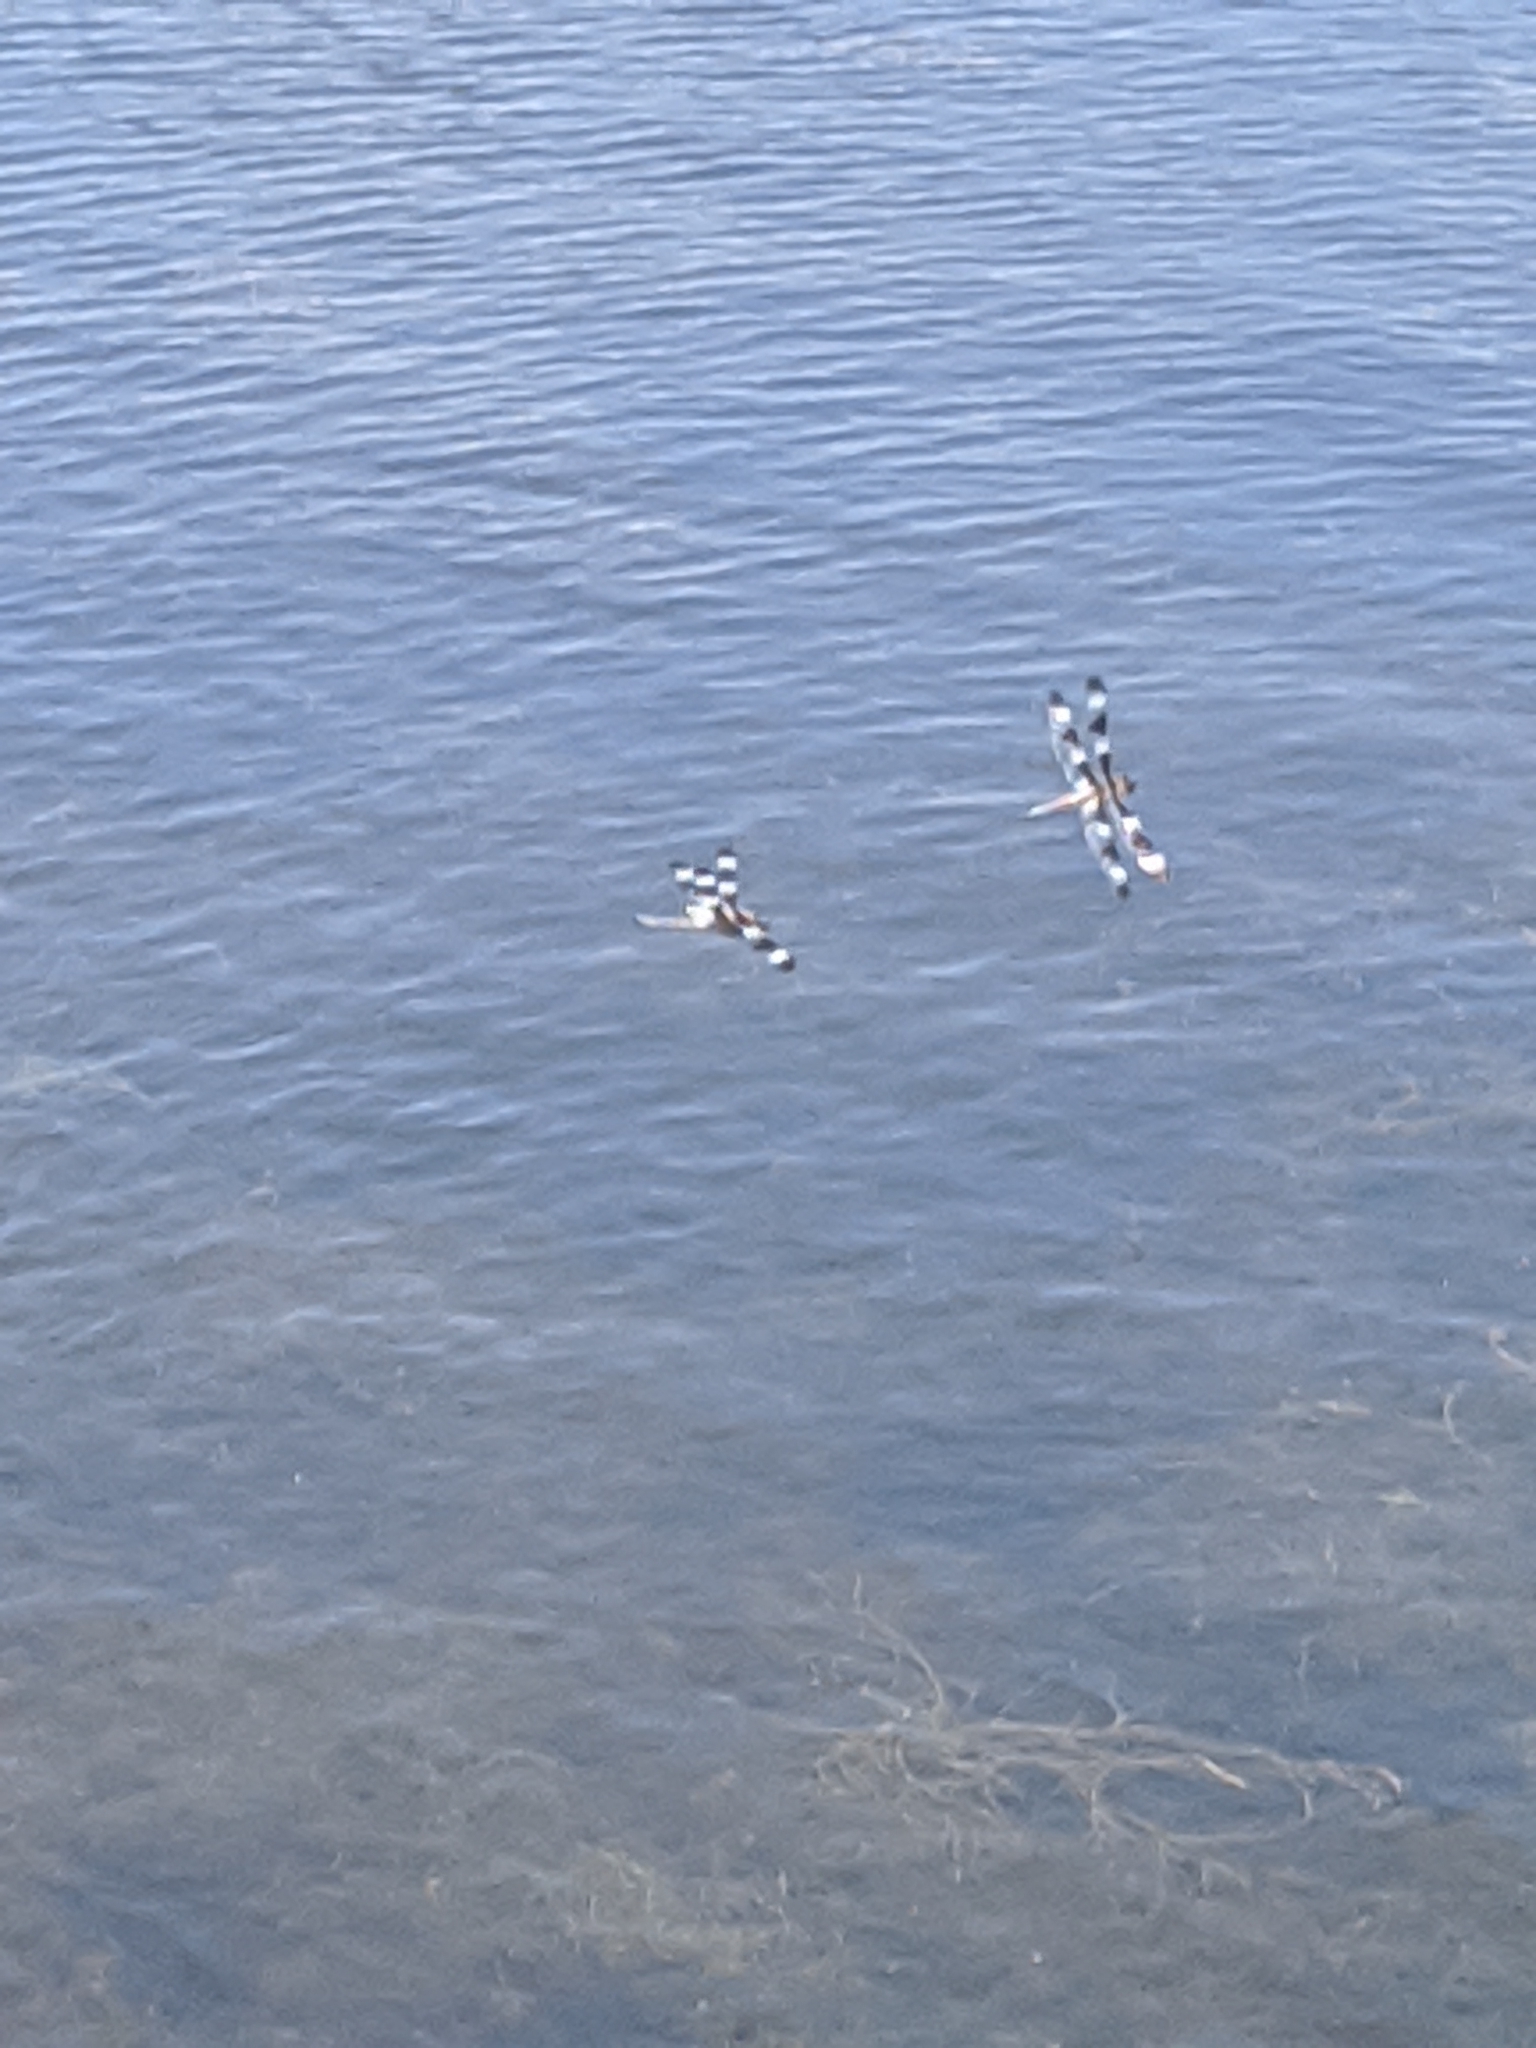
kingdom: Animalia
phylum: Arthropoda
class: Insecta
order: Odonata
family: Libellulidae
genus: Libellula
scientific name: Libellula pulchella
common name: Twelve-spotted skimmer
